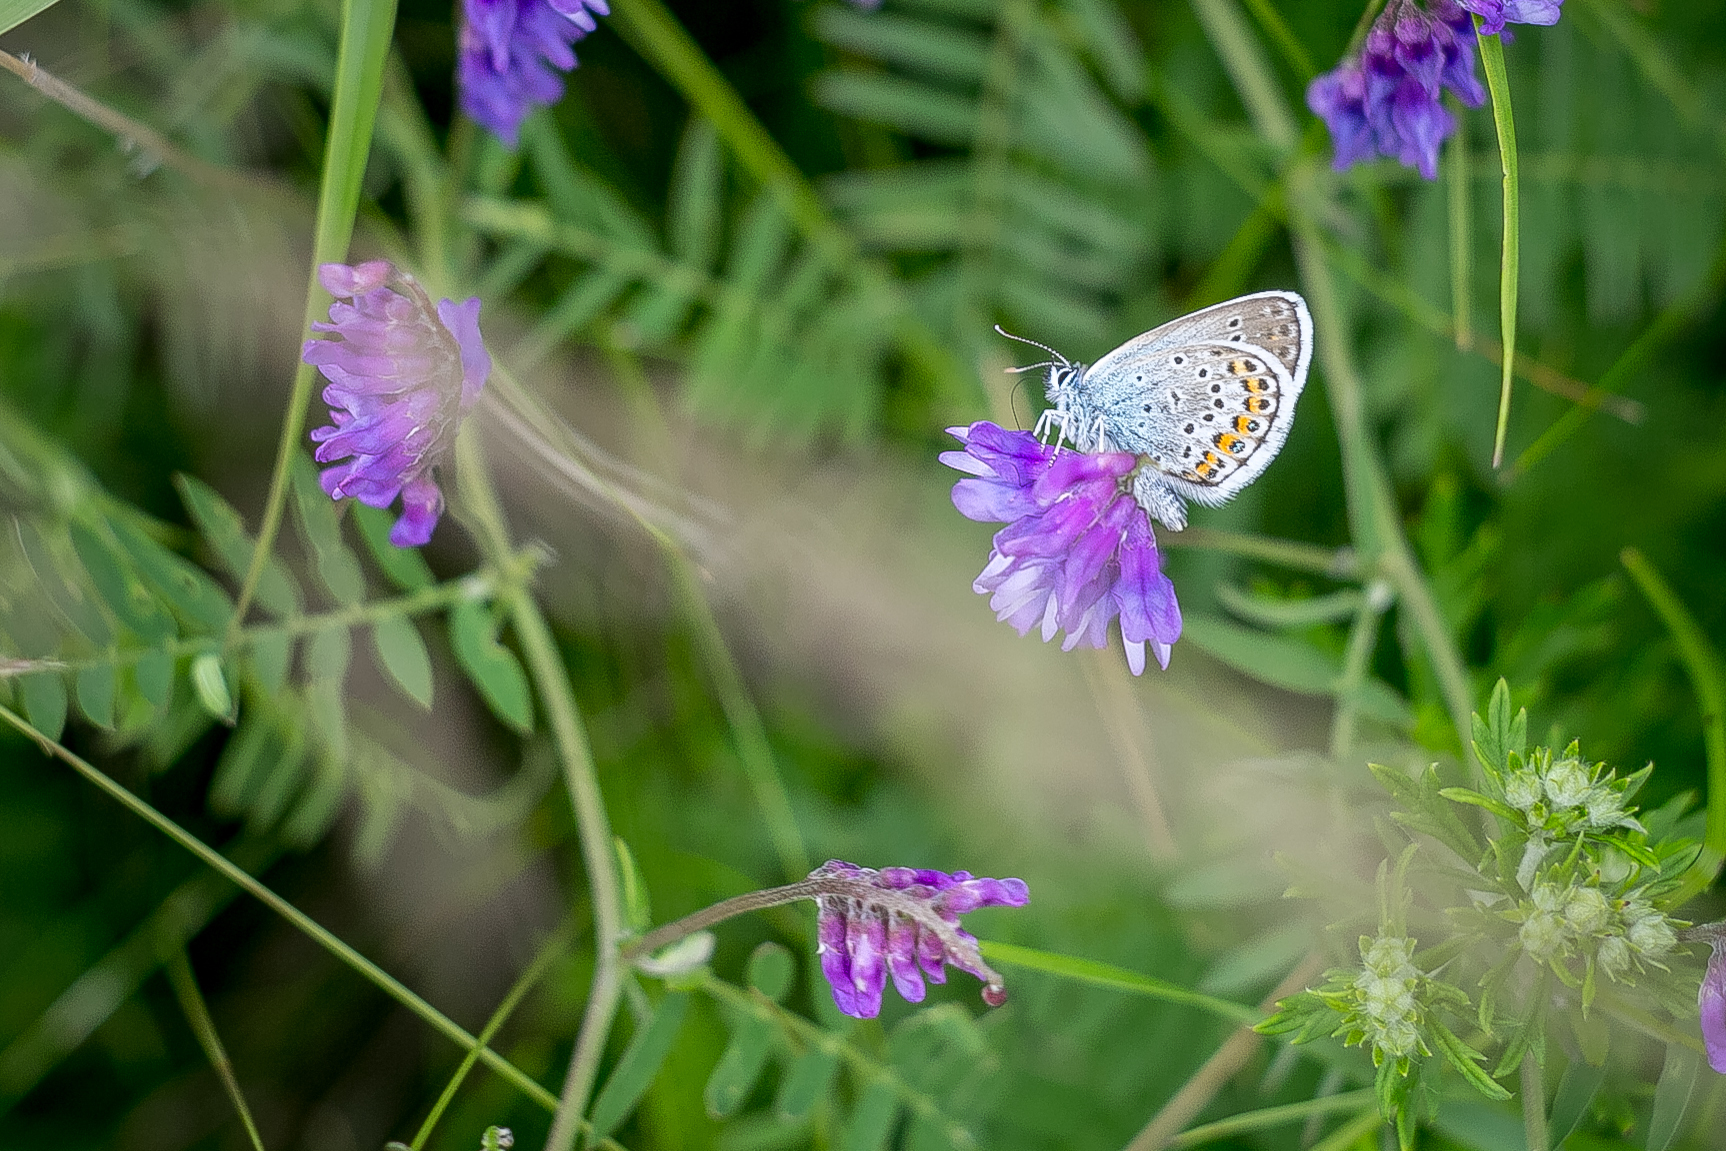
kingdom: Animalia
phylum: Arthropoda
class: Insecta
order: Lepidoptera
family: Lycaenidae
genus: Plebejus
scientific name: Plebejus argus
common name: Silver-studded blue
